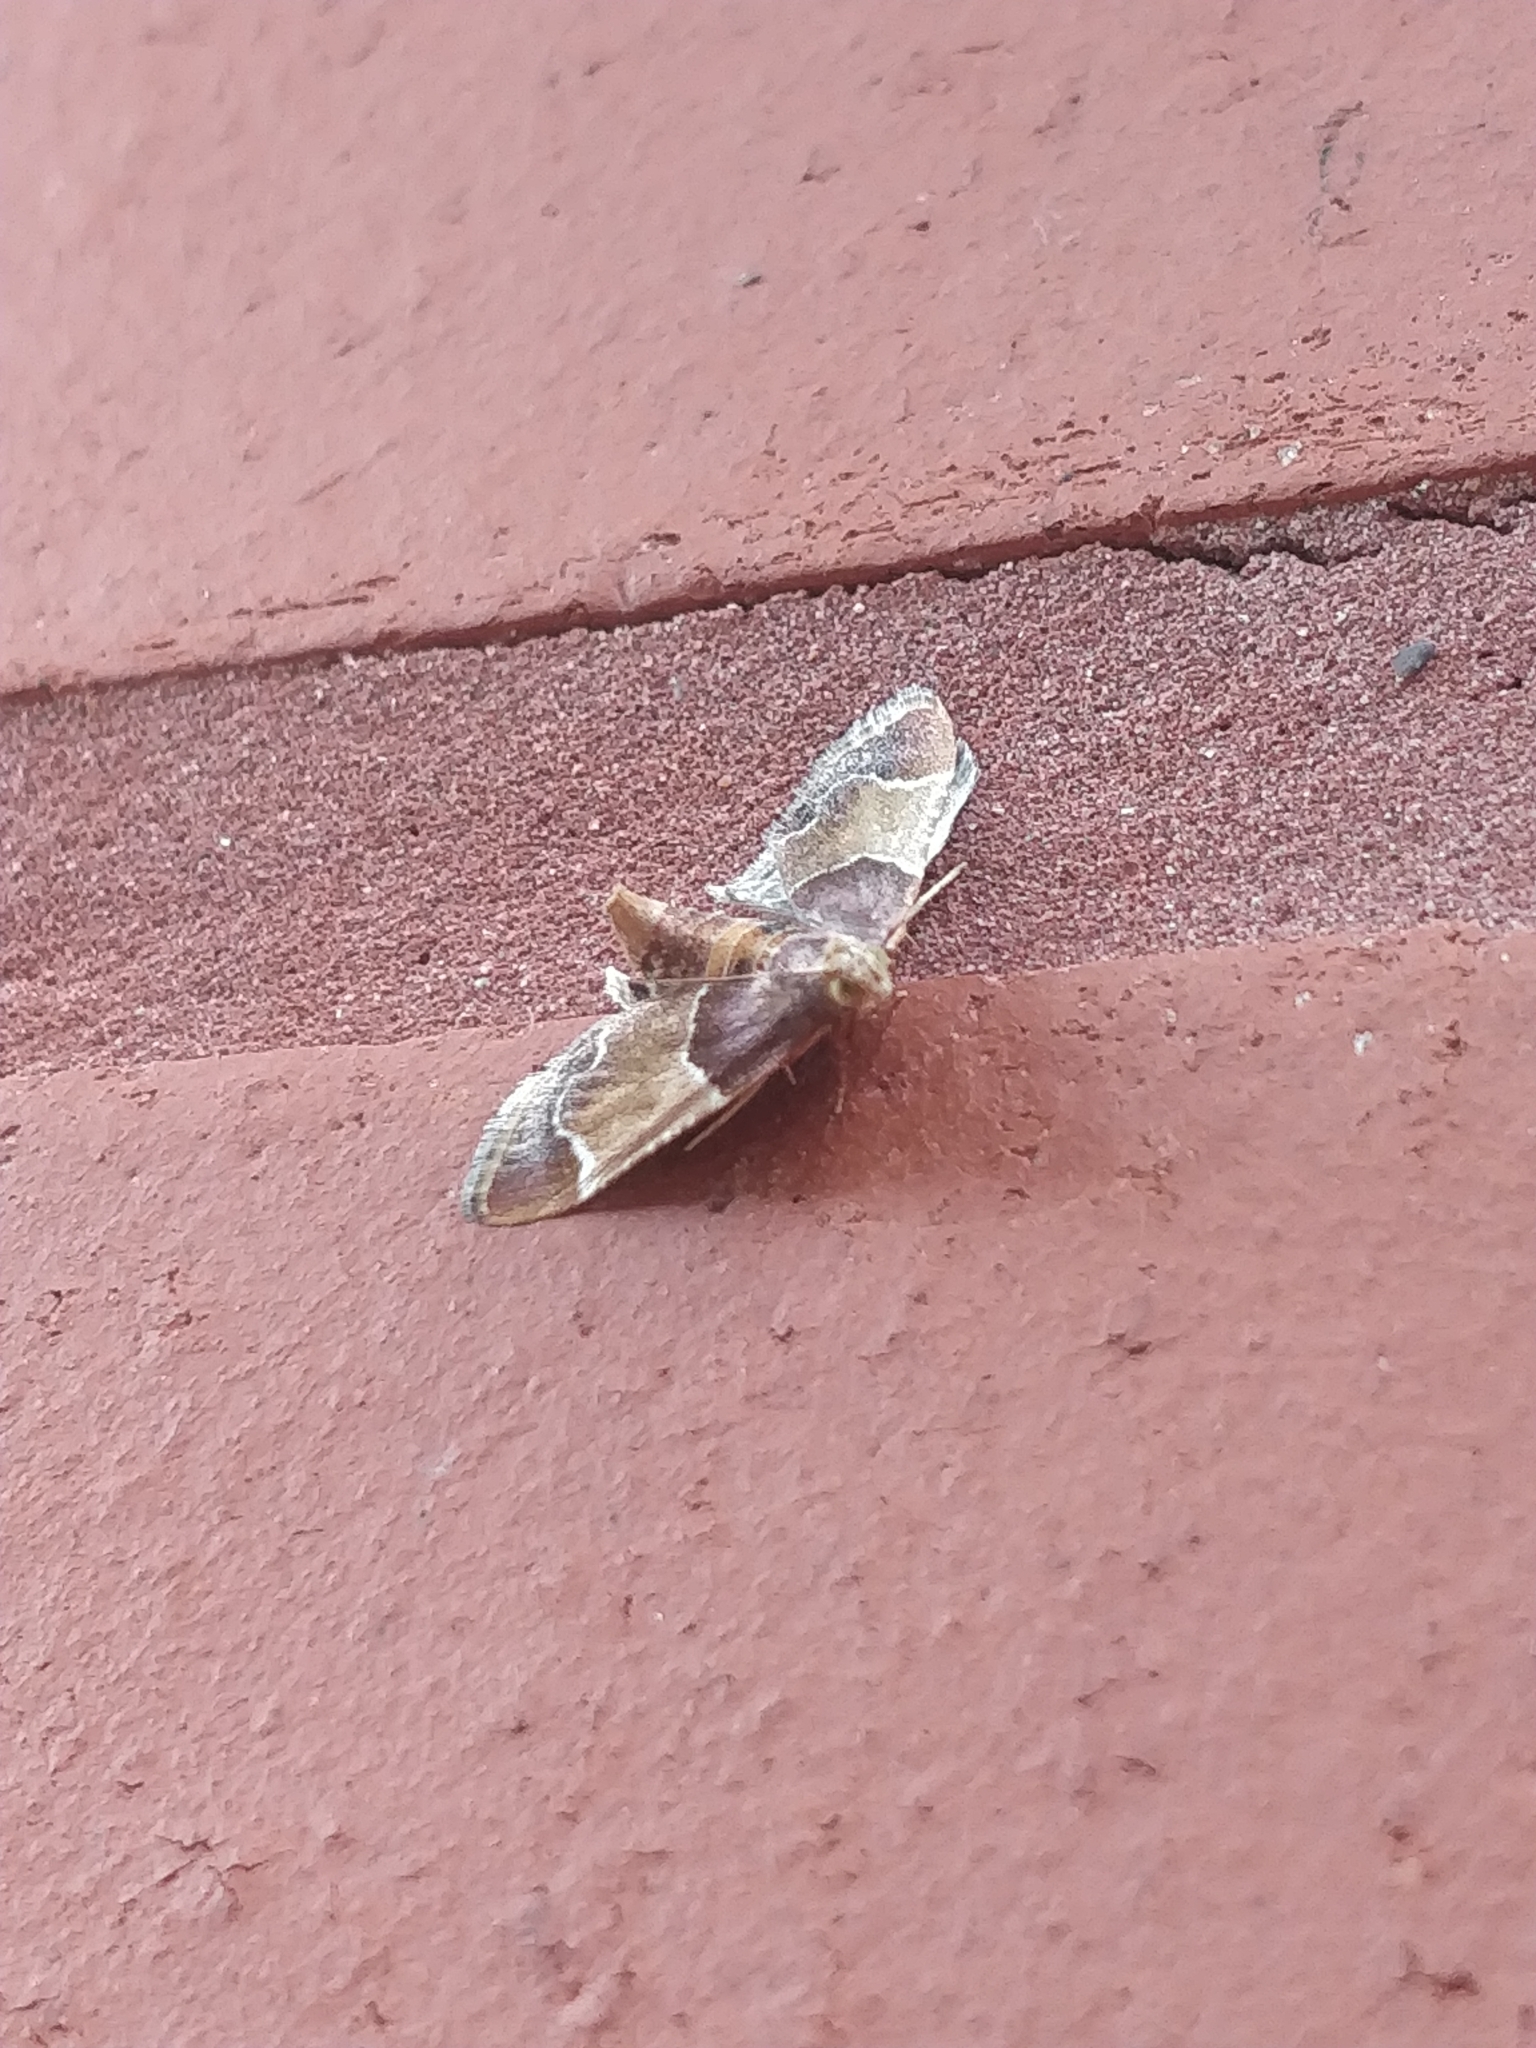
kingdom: Animalia
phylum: Arthropoda
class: Insecta
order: Lepidoptera
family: Pyralidae
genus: Pyralis
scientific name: Pyralis farinalis
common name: Meal moth
